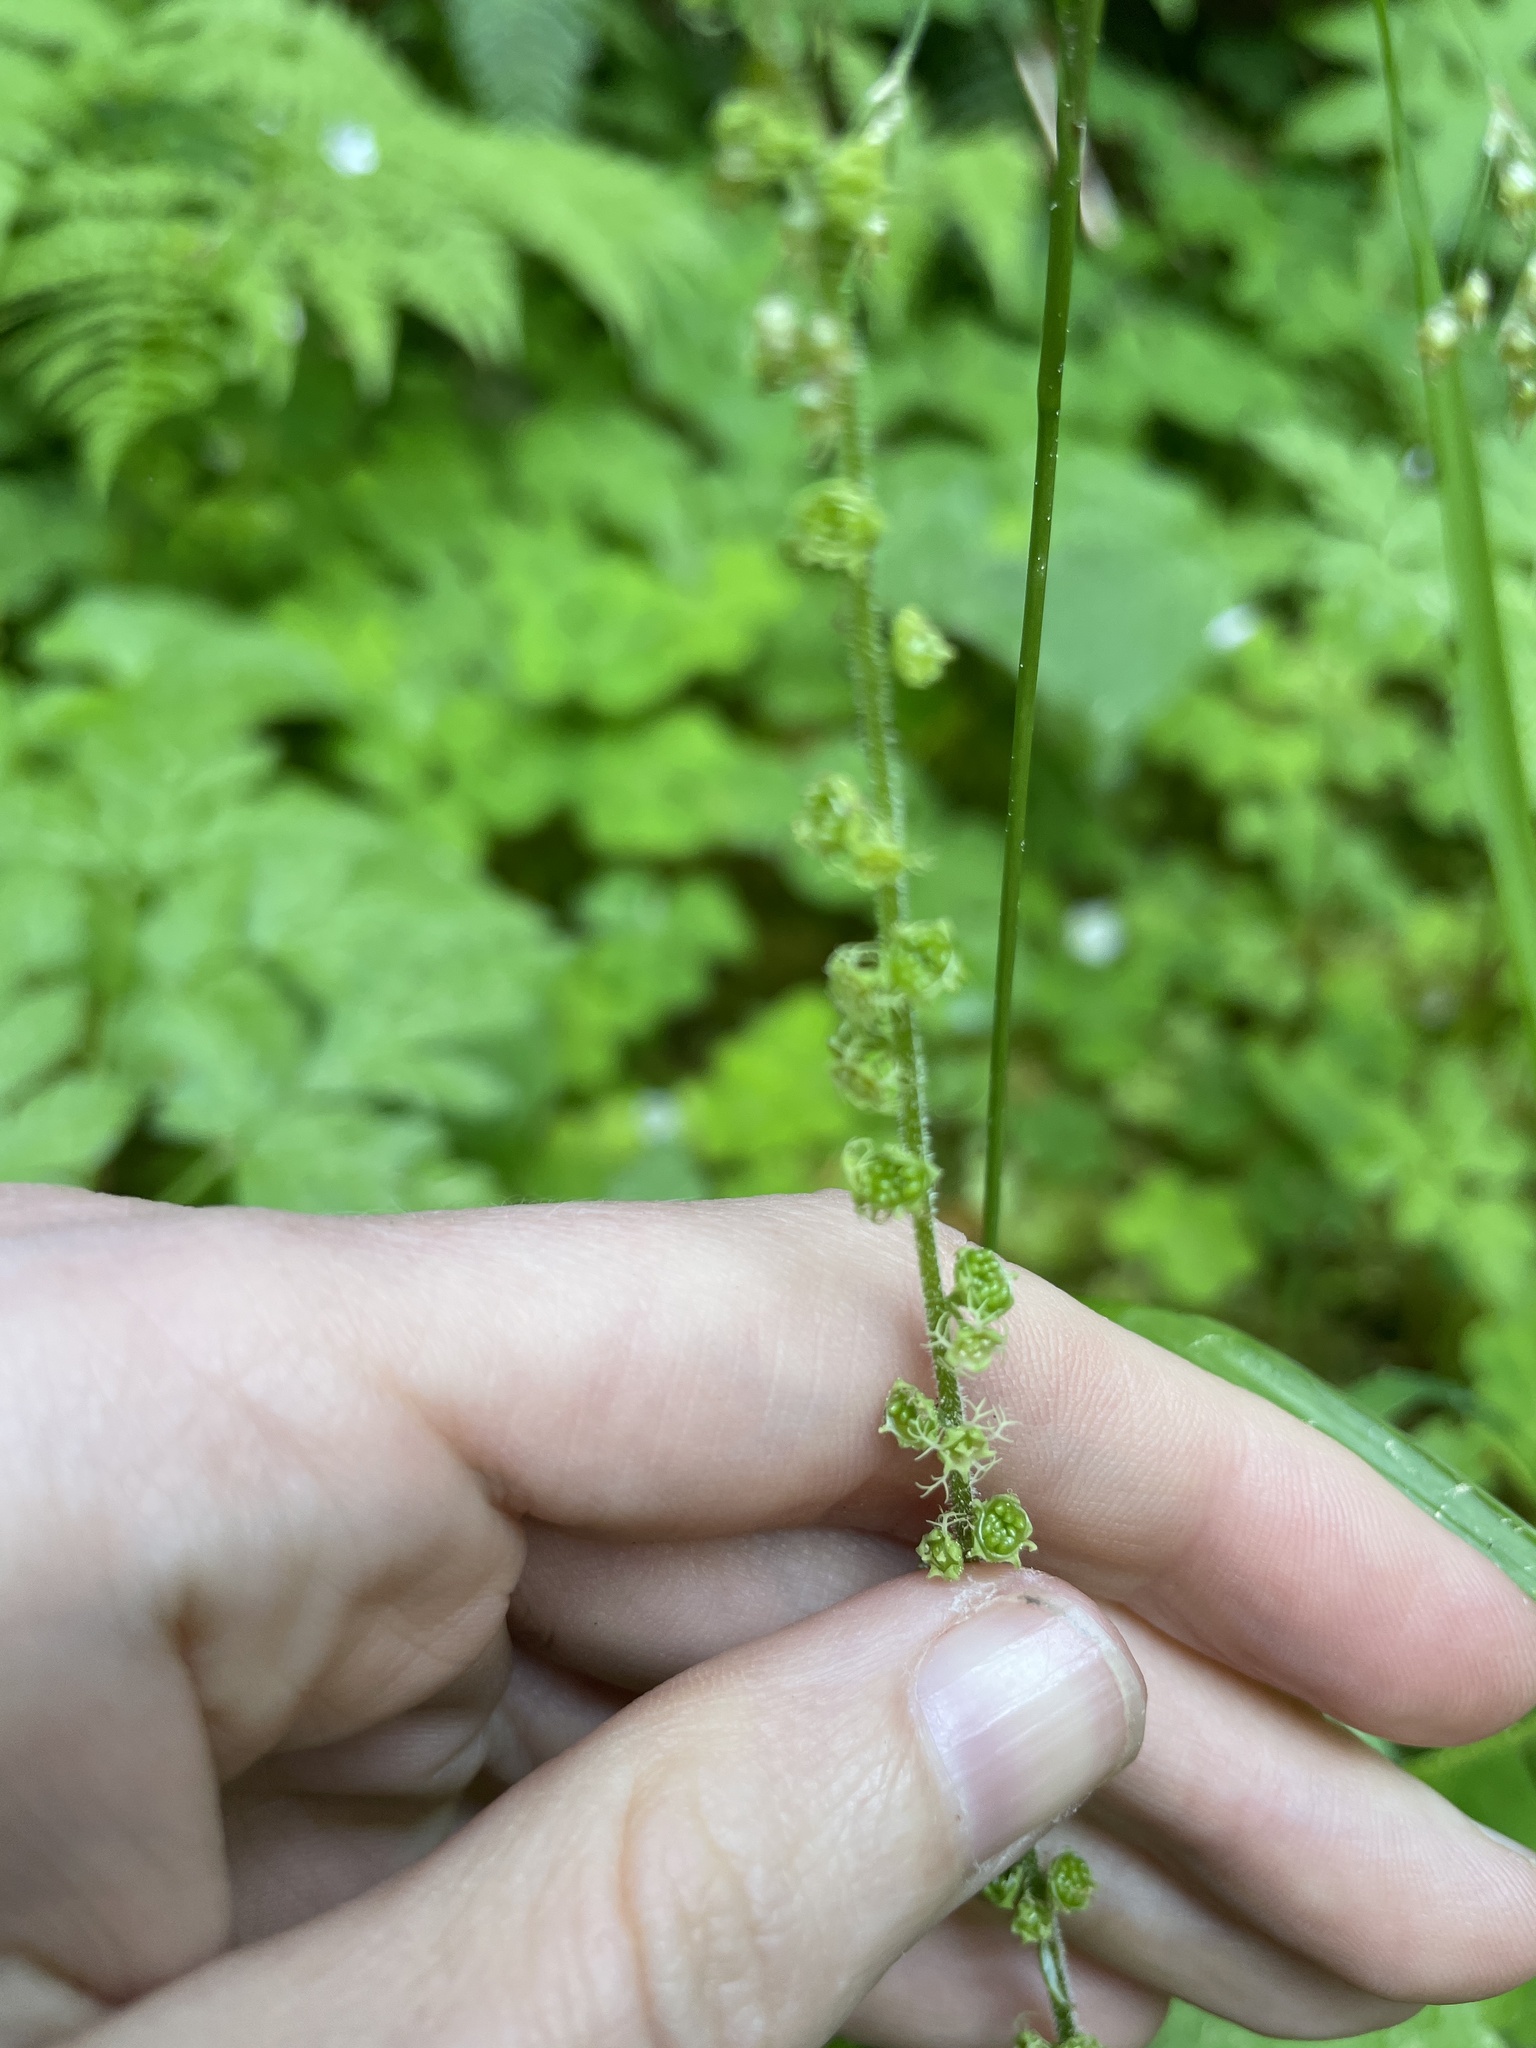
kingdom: Plantae
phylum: Tracheophyta
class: Magnoliopsida
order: Saxifragales
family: Saxifragaceae
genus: Brewerimitella
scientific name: Brewerimitella ovalis
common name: Coastal bishop's-cap
